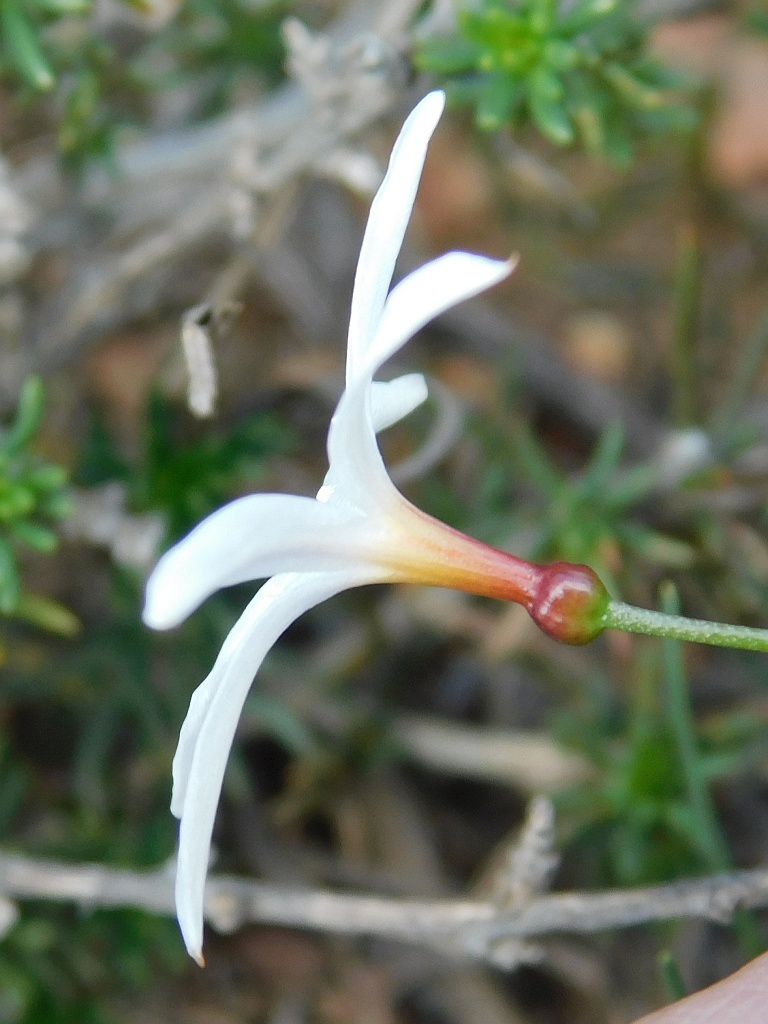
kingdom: Plantae
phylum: Tracheophyta
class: Liliopsida
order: Asparagales
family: Amaryllidaceae
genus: Strumaria
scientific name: Strumaria spiralis
